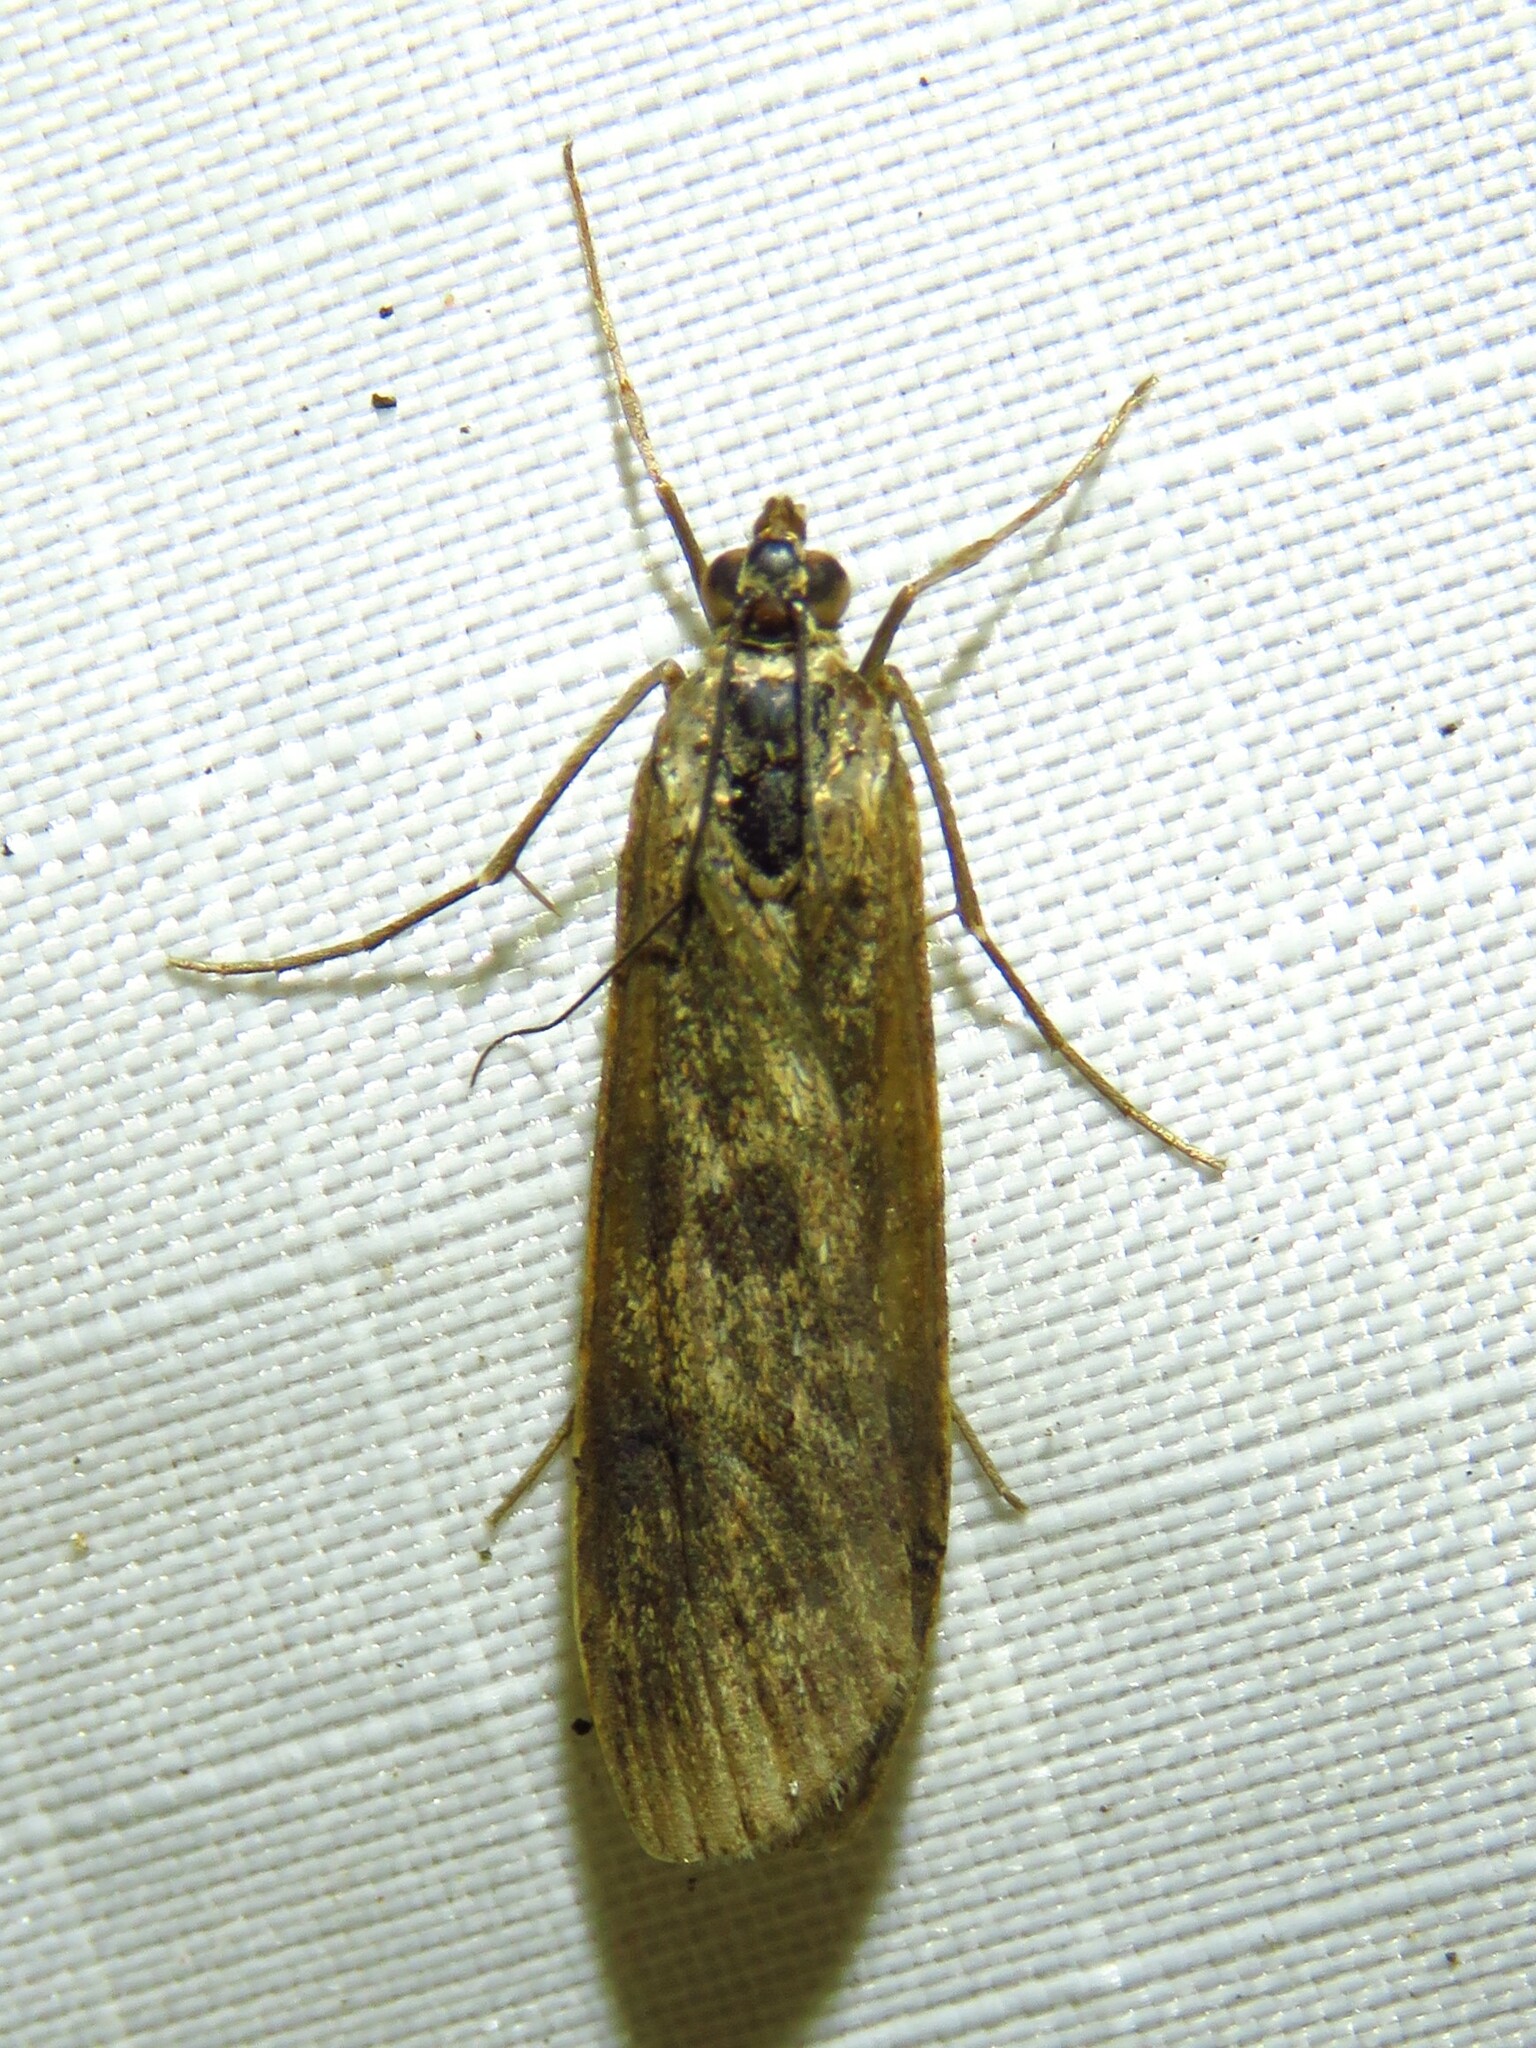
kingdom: Animalia
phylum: Arthropoda
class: Insecta
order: Lepidoptera
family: Crambidae
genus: Nomophila
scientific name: Nomophila nearctica
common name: American rush veneer
